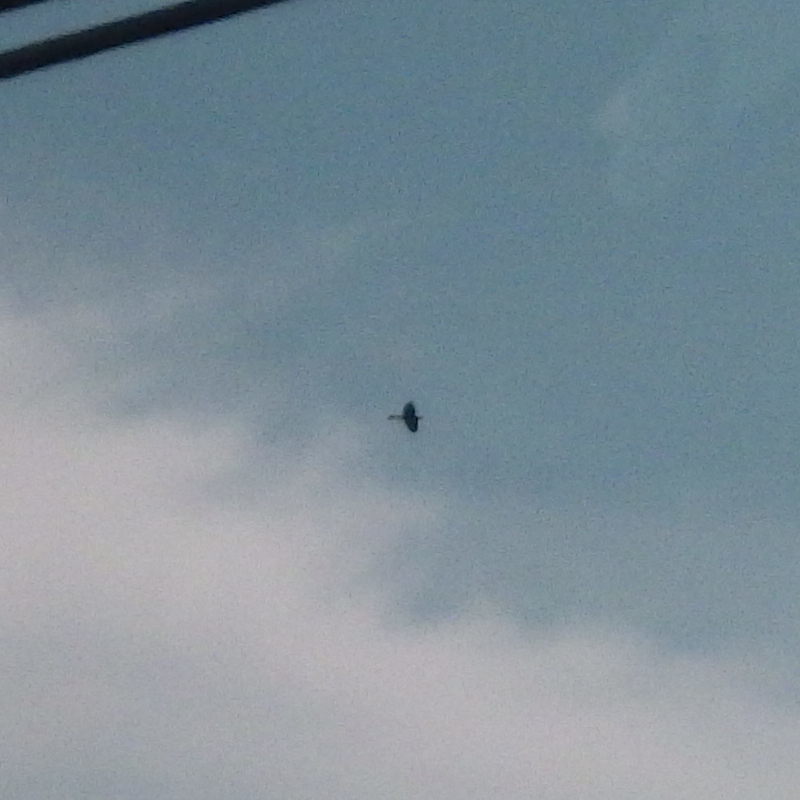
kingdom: Animalia
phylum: Chordata
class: Aves
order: Pelecaniformes
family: Ardeidae
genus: Ardea
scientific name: Ardea herodias
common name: Great blue heron
